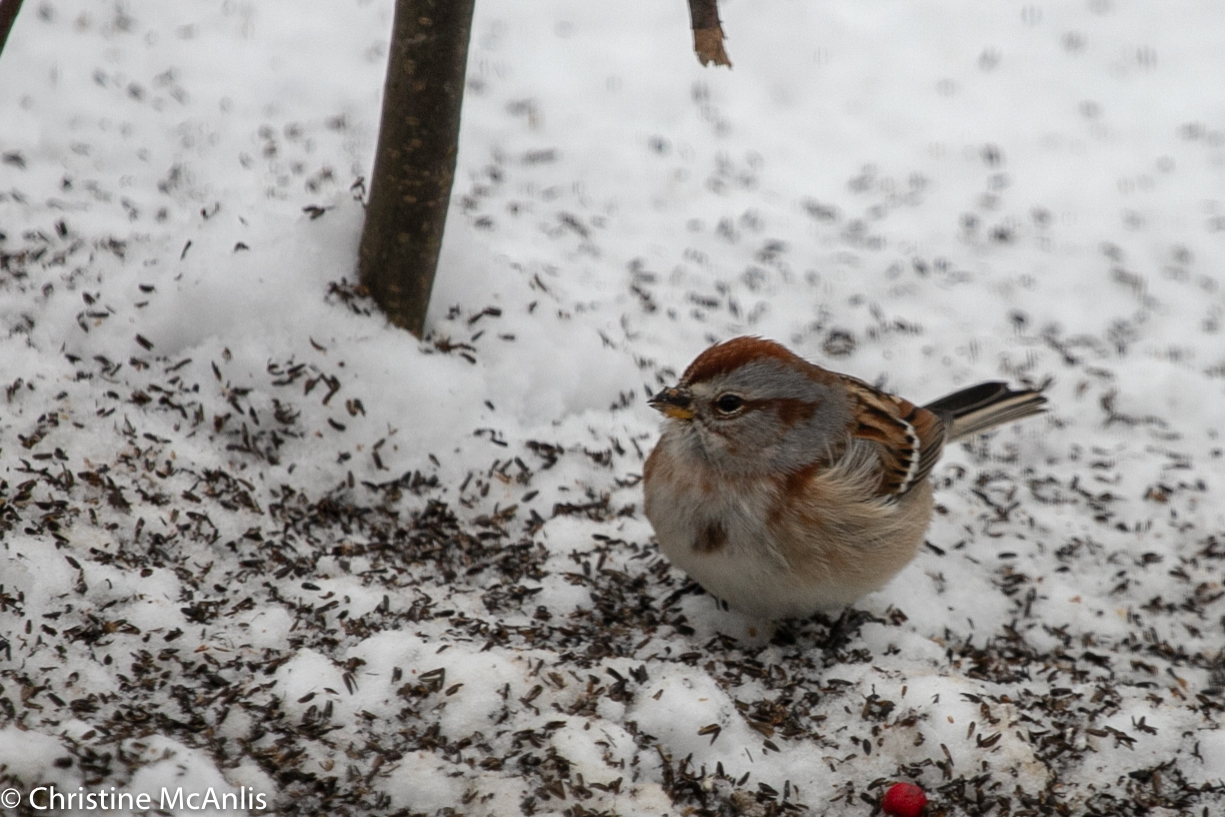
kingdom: Animalia
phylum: Chordata
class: Aves
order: Passeriformes
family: Passerellidae
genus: Spizelloides
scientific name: Spizelloides arborea
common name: American tree sparrow
